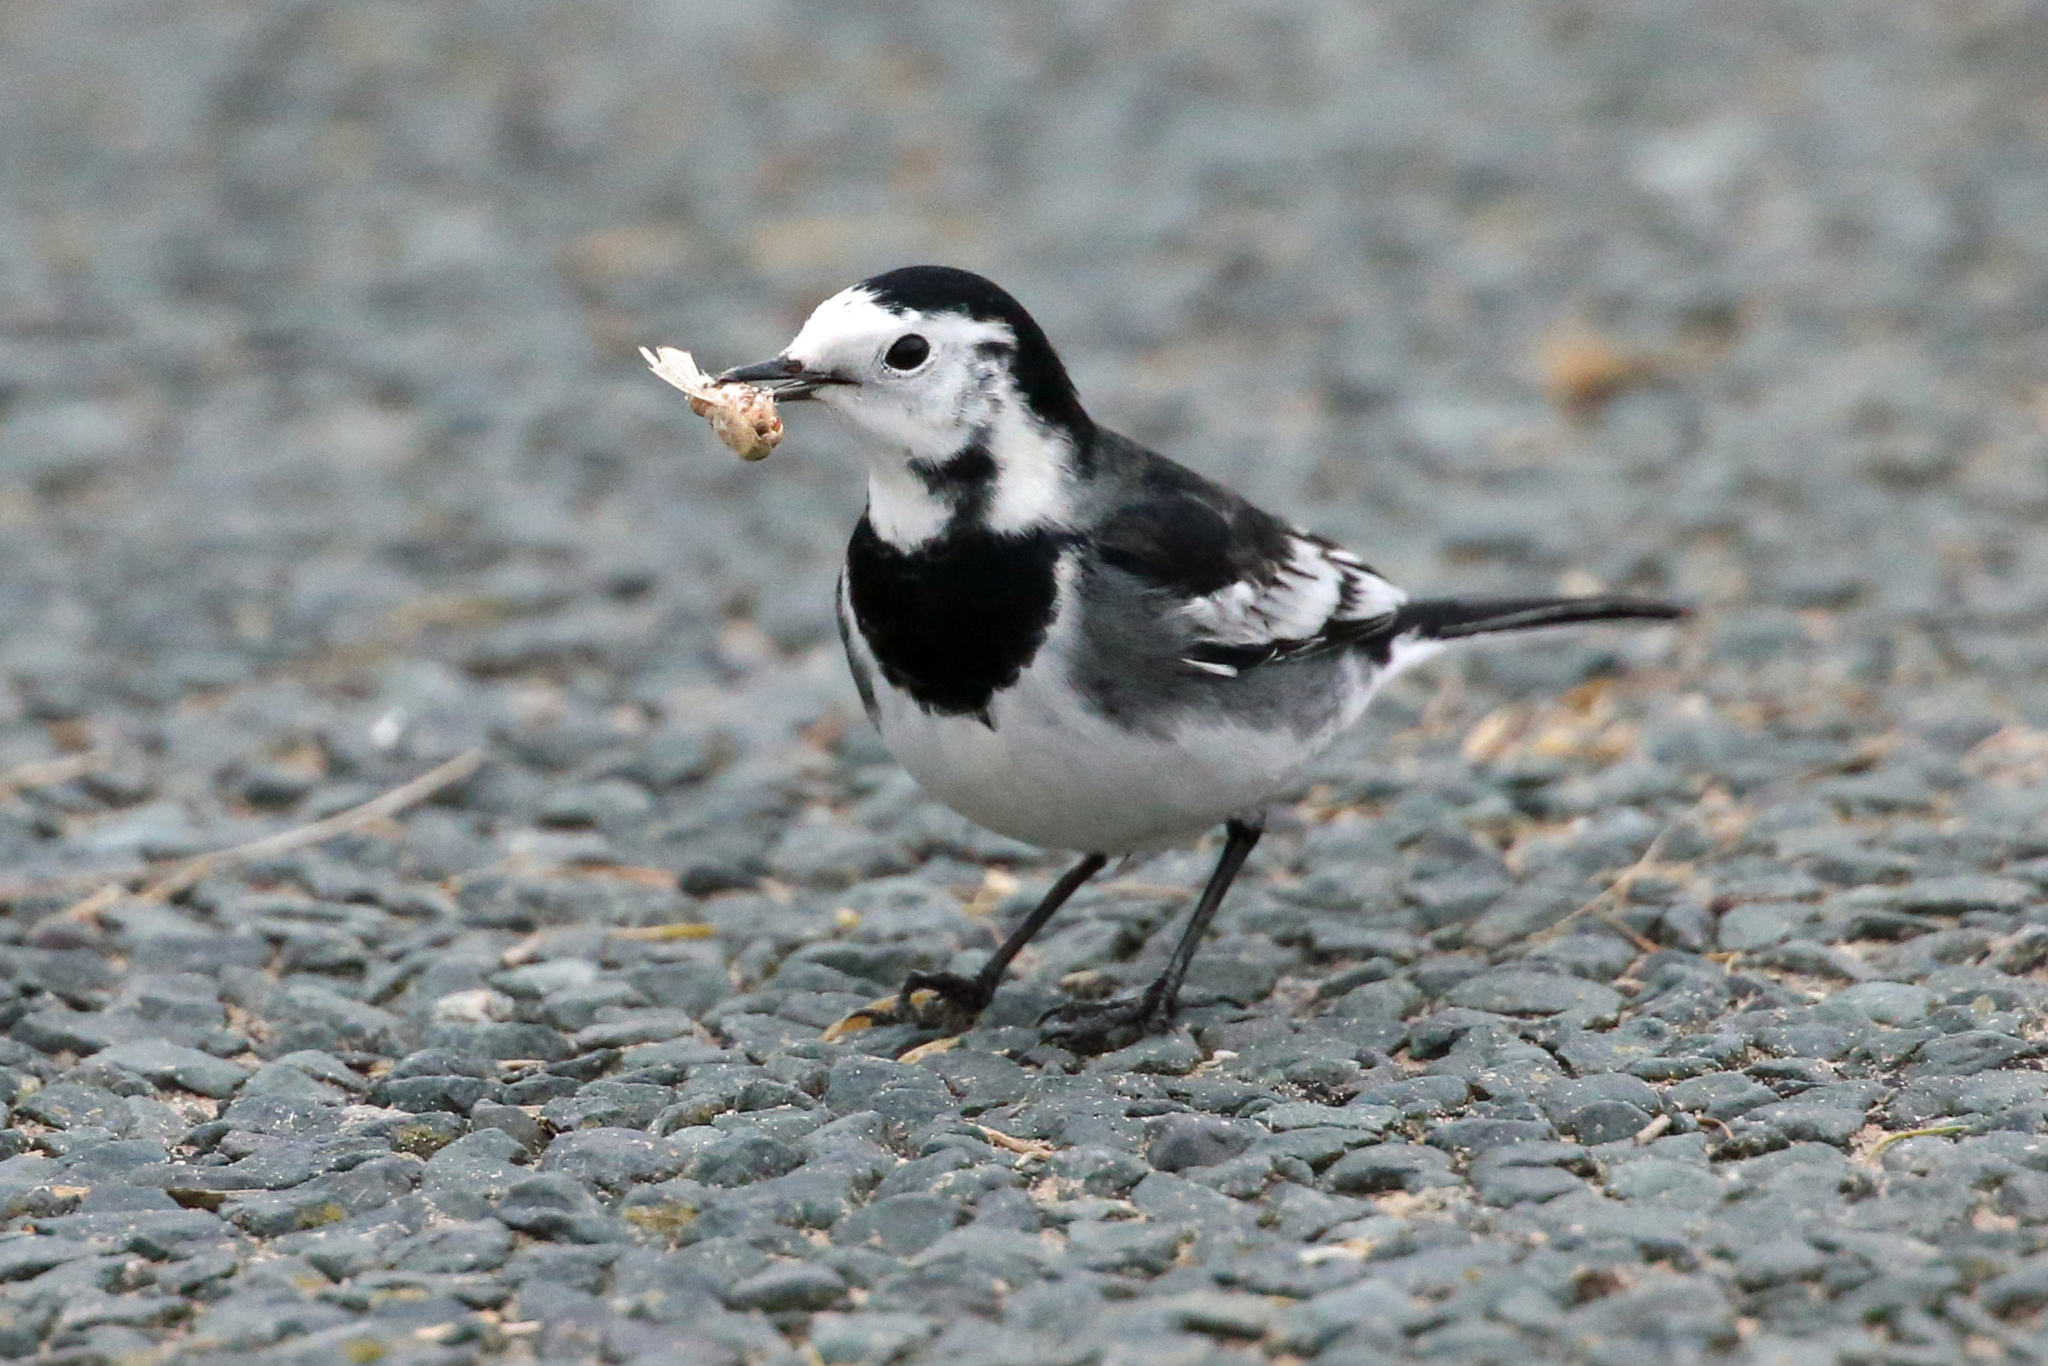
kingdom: Animalia
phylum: Chordata
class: Aves
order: Passeriformes
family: Motacillidae
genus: Motacilla
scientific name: Motacilla alba
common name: White wagtail
